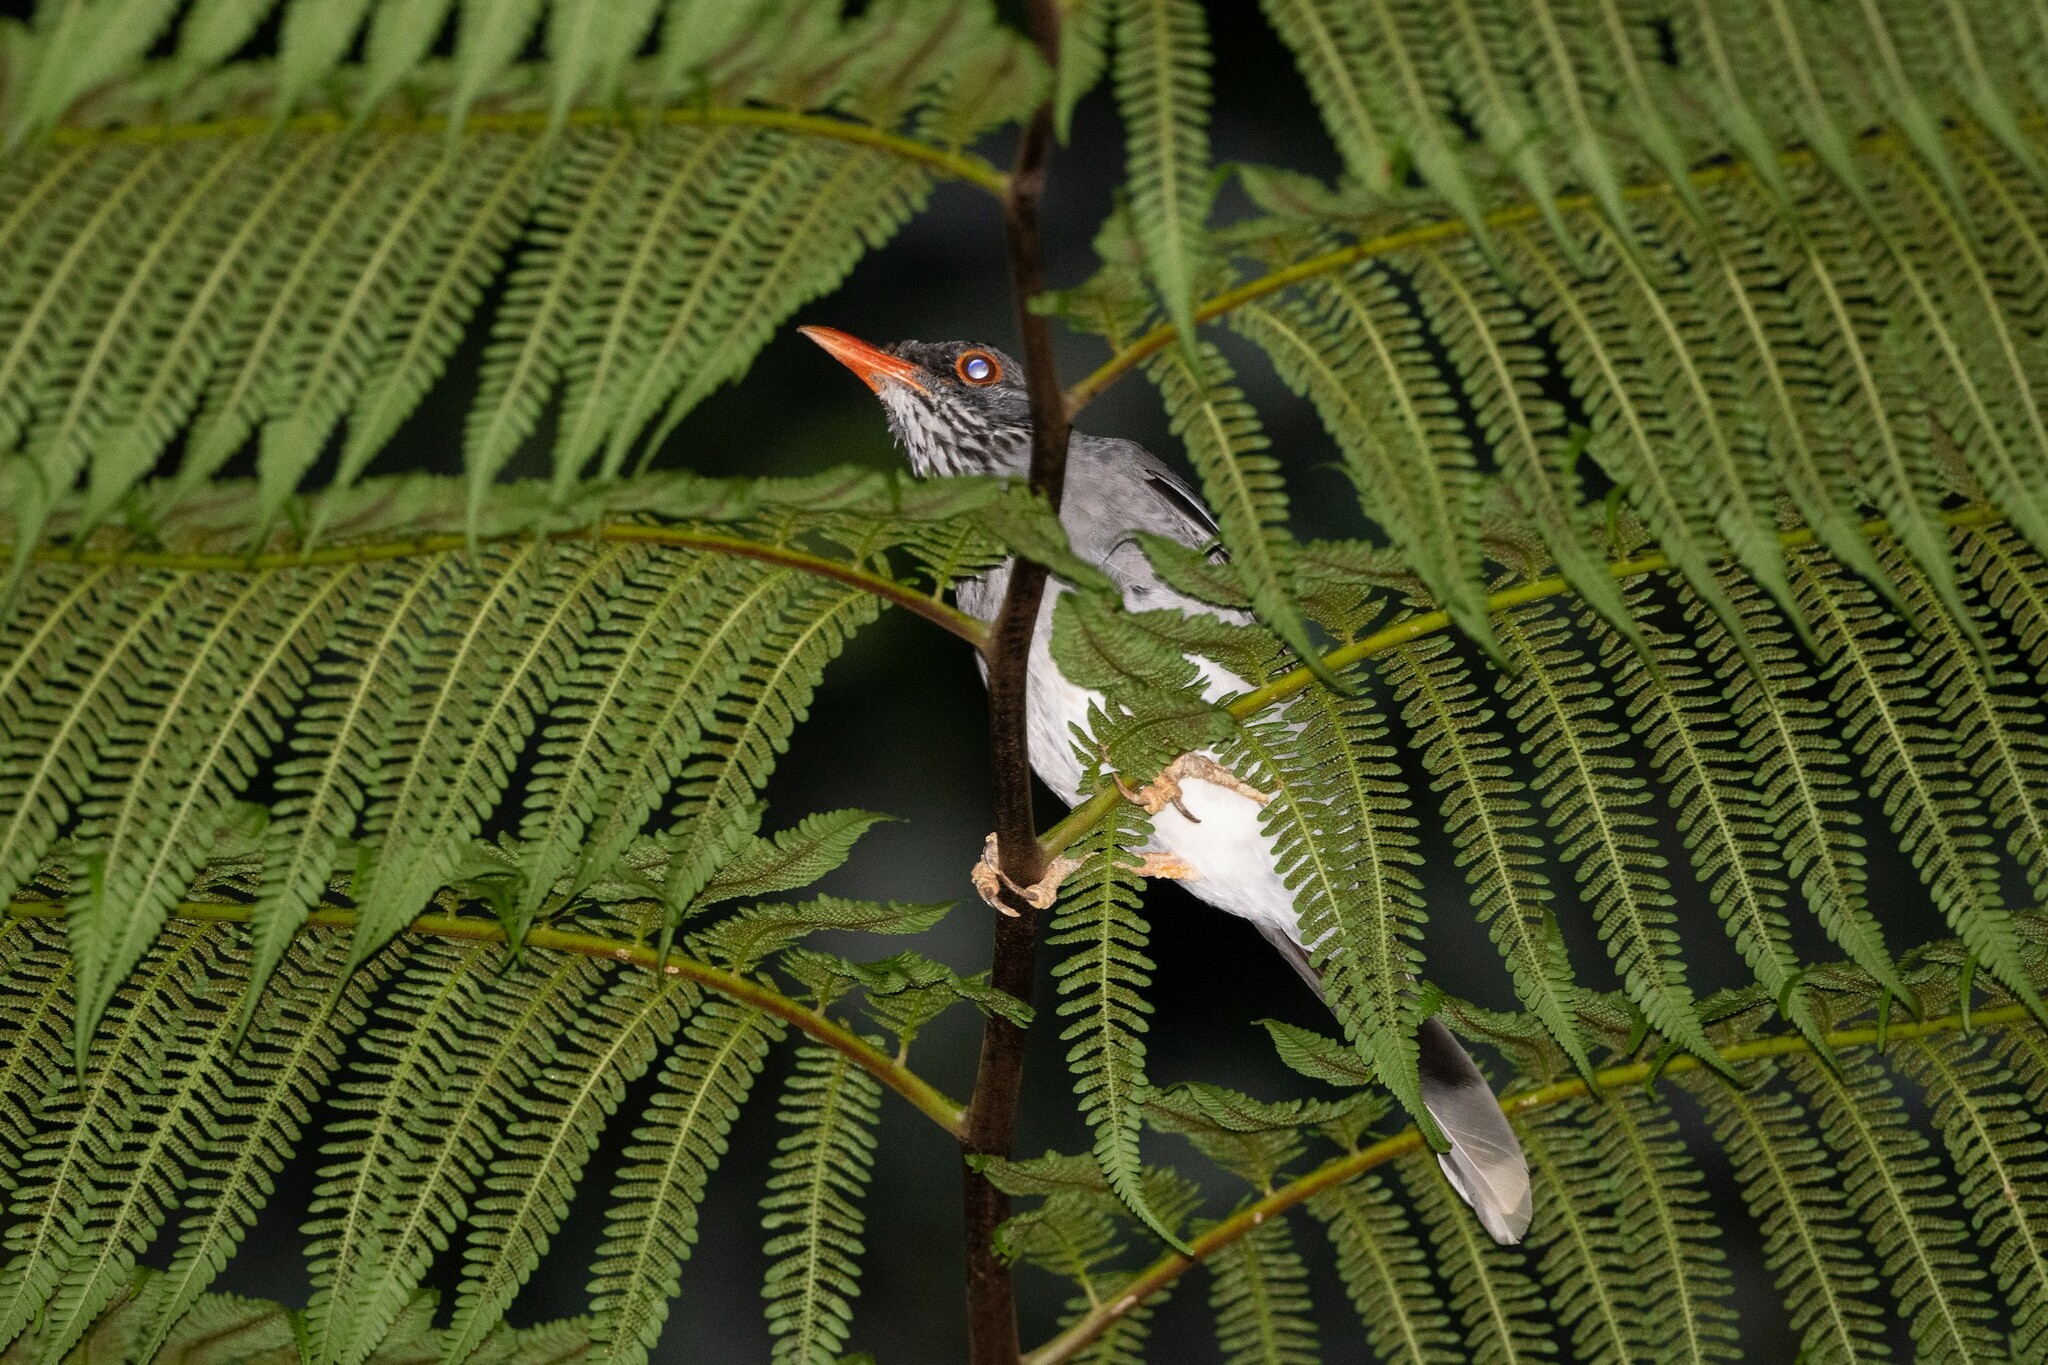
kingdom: Animalia
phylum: Chordata
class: Aves
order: Passeriformes
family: Turdidae
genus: Turdus
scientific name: Turdus plumbeus
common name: Red-legged thrush
